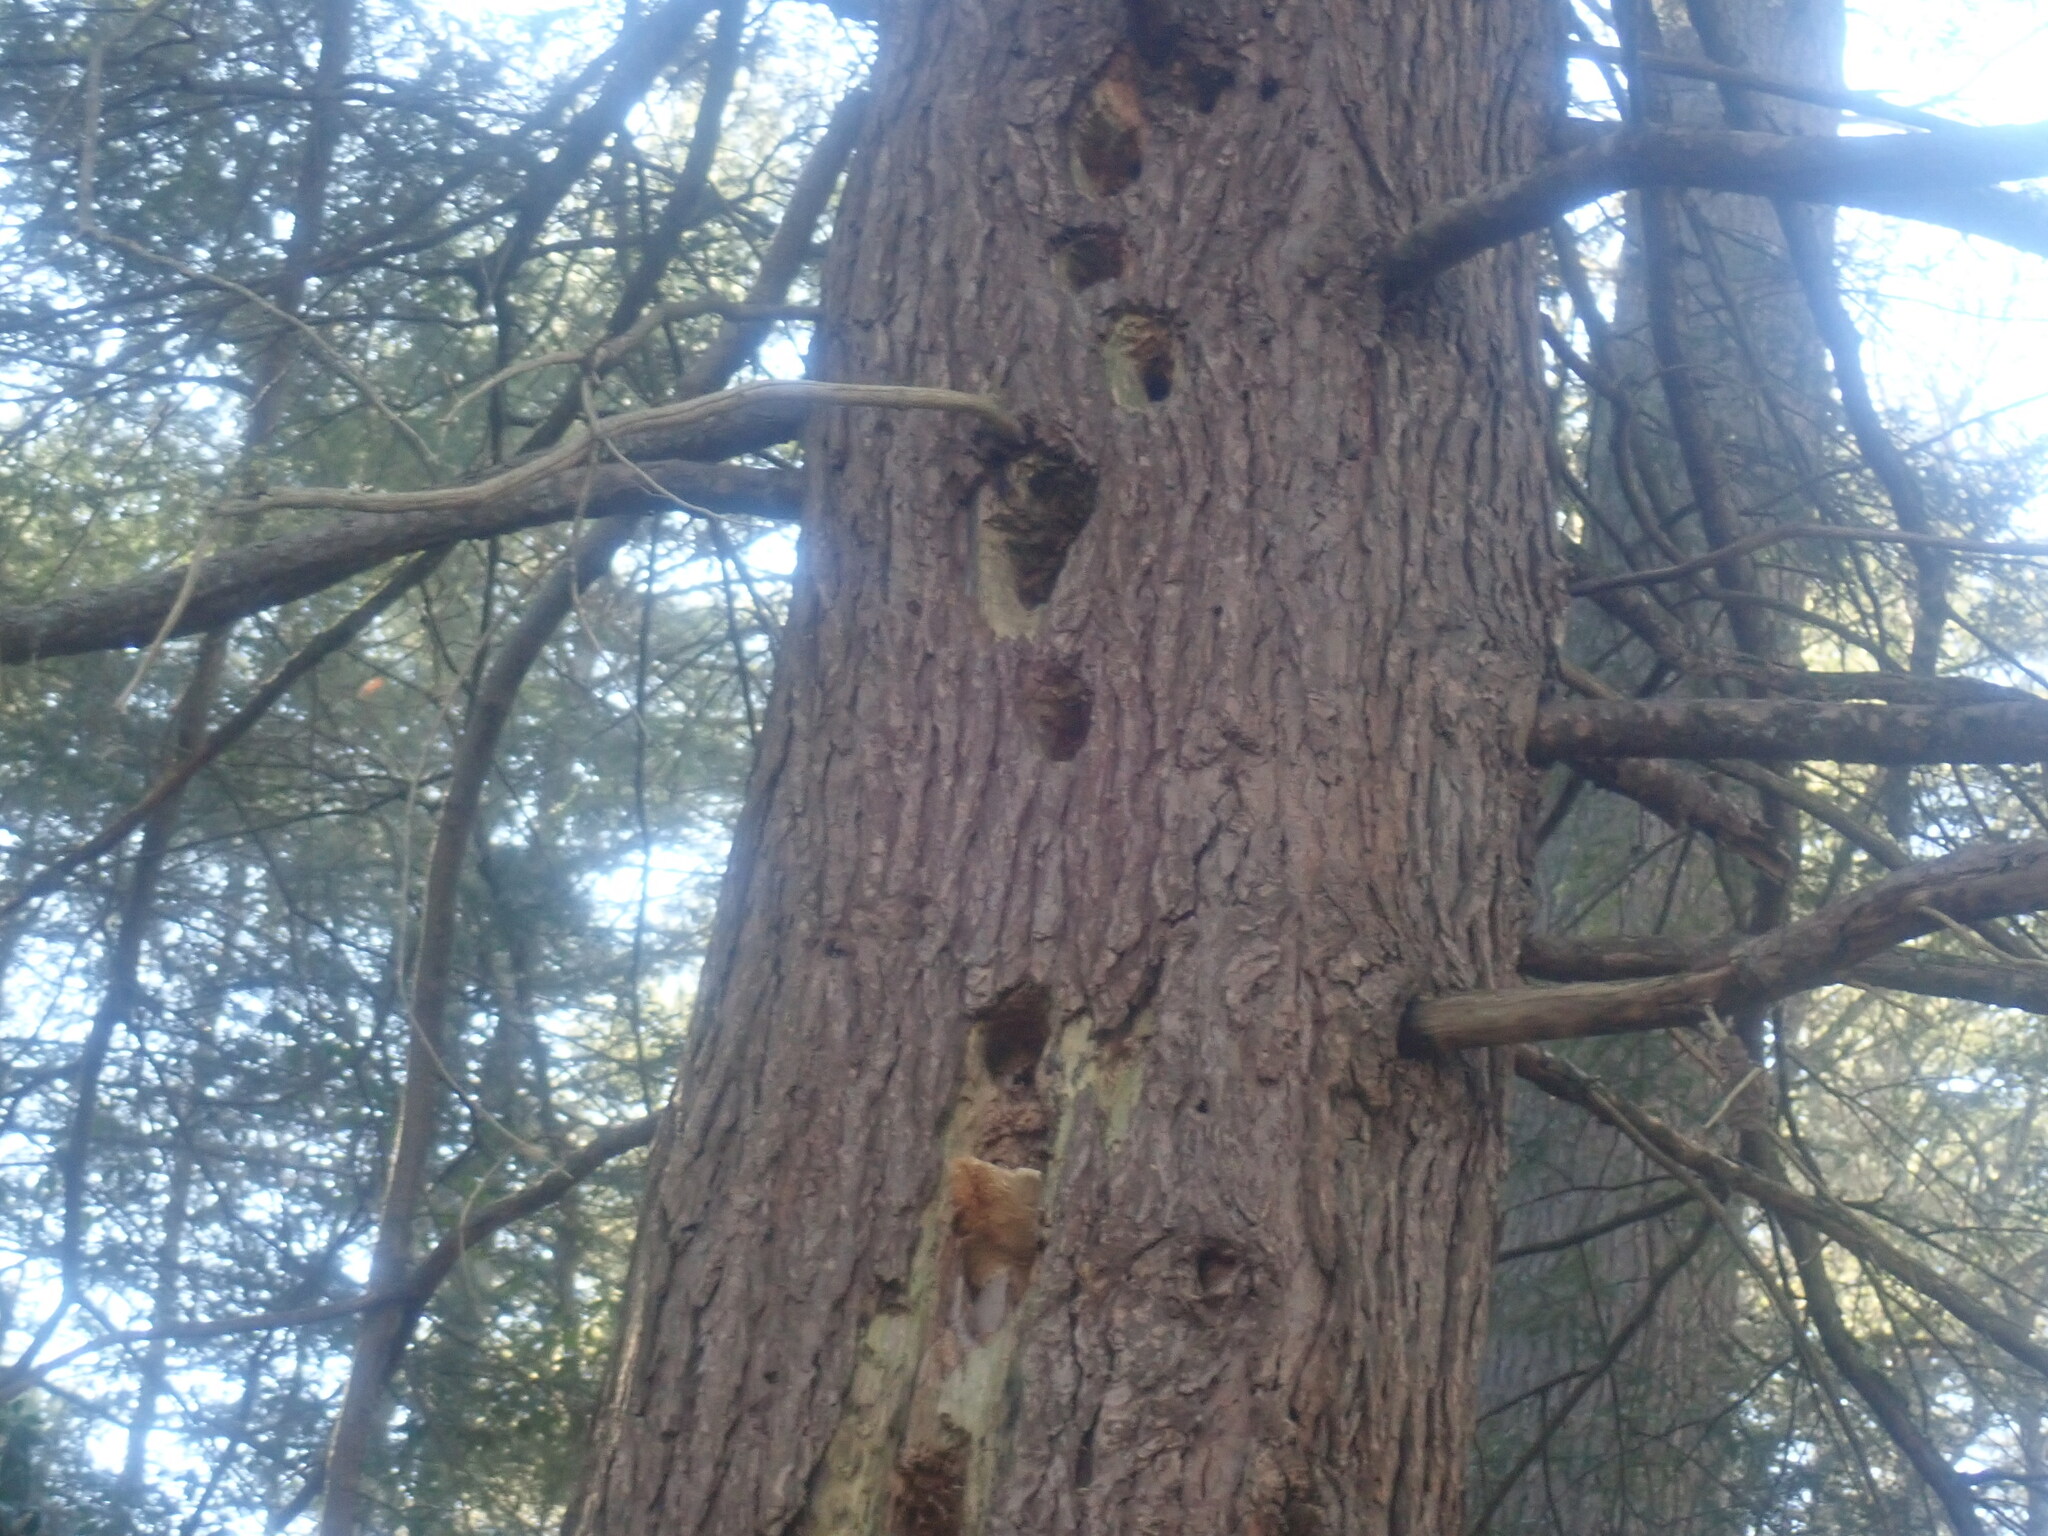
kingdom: Animalia
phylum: Chordata
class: Aves
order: Piciformes
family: Picidae
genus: Dryocopus
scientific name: Dryocopus pileatus
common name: Pileated woodpecker
